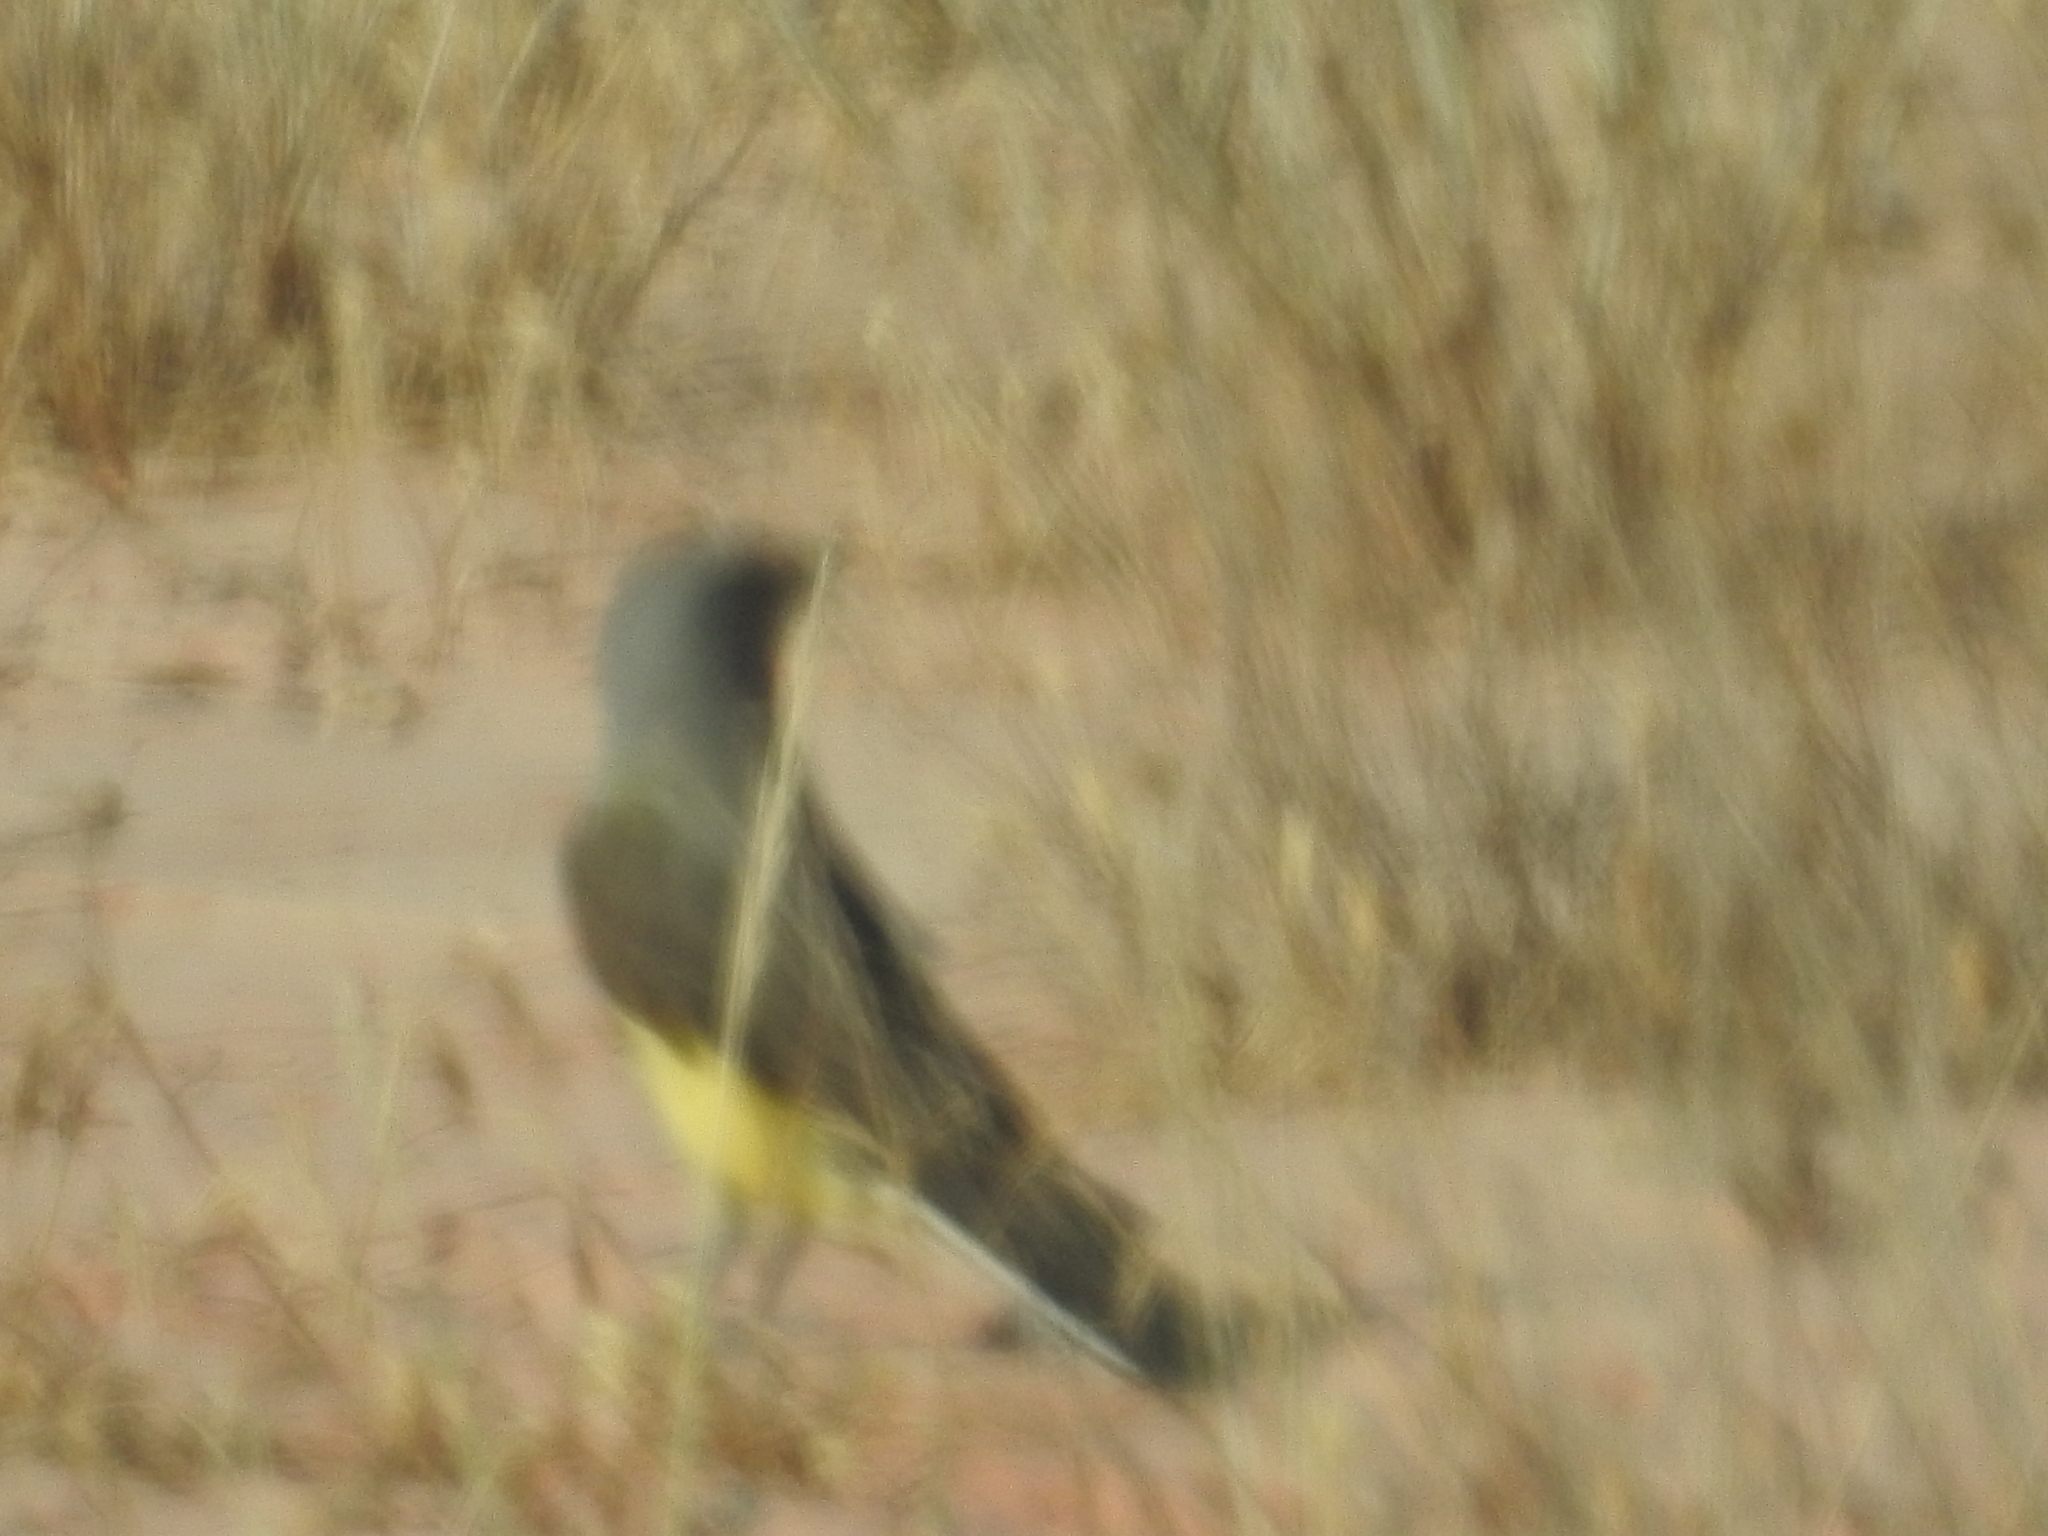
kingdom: Animalia
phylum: Chordata
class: Aves
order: Passeriformes
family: Tyrannidae
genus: Tyrannus
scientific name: Tyrannus verticalis
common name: Western kingbird
